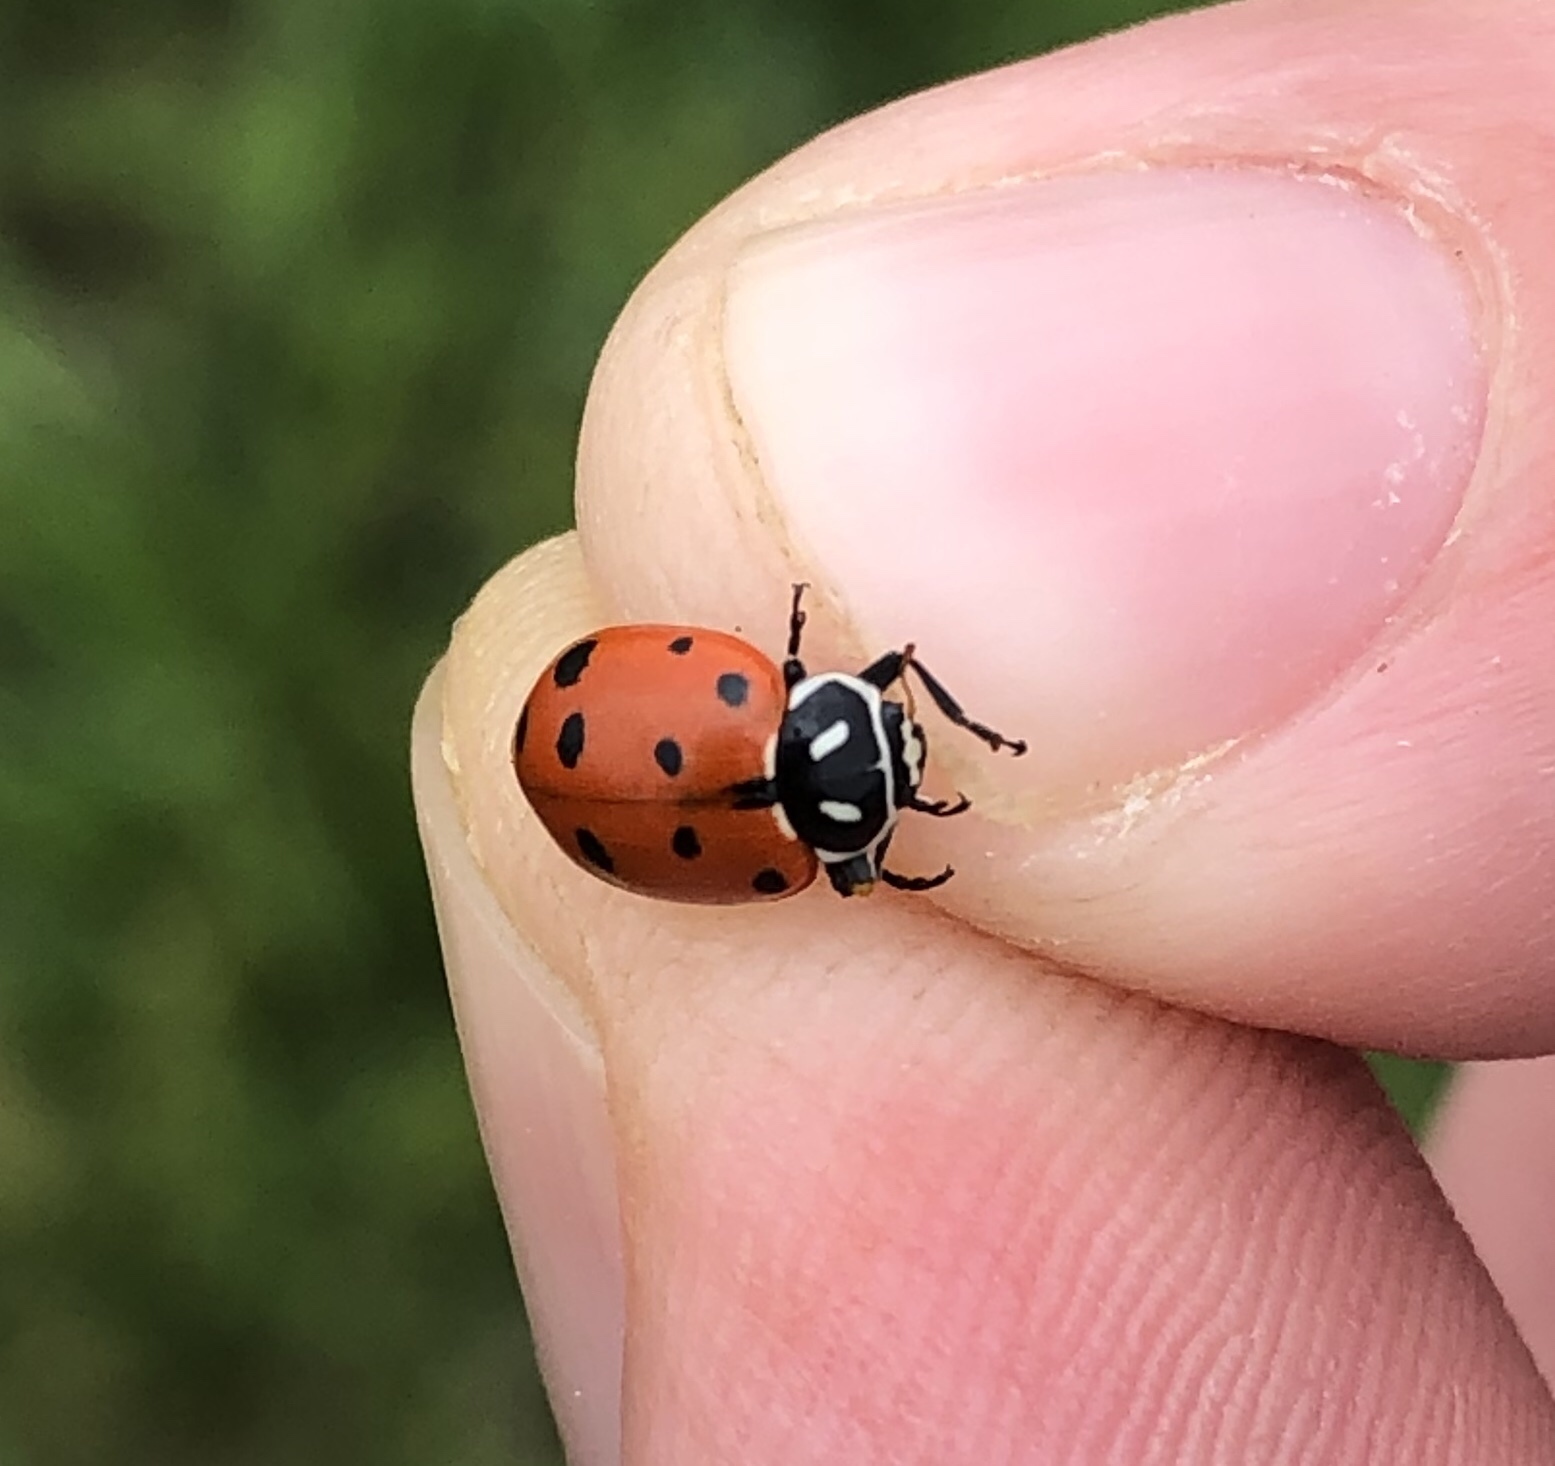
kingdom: Animalia
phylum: Arthropoda
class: Insecta
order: Coleoptera
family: Coccinellidae
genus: Hippodamia
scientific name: Hippodamia convergens
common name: Convergent lady beetle
